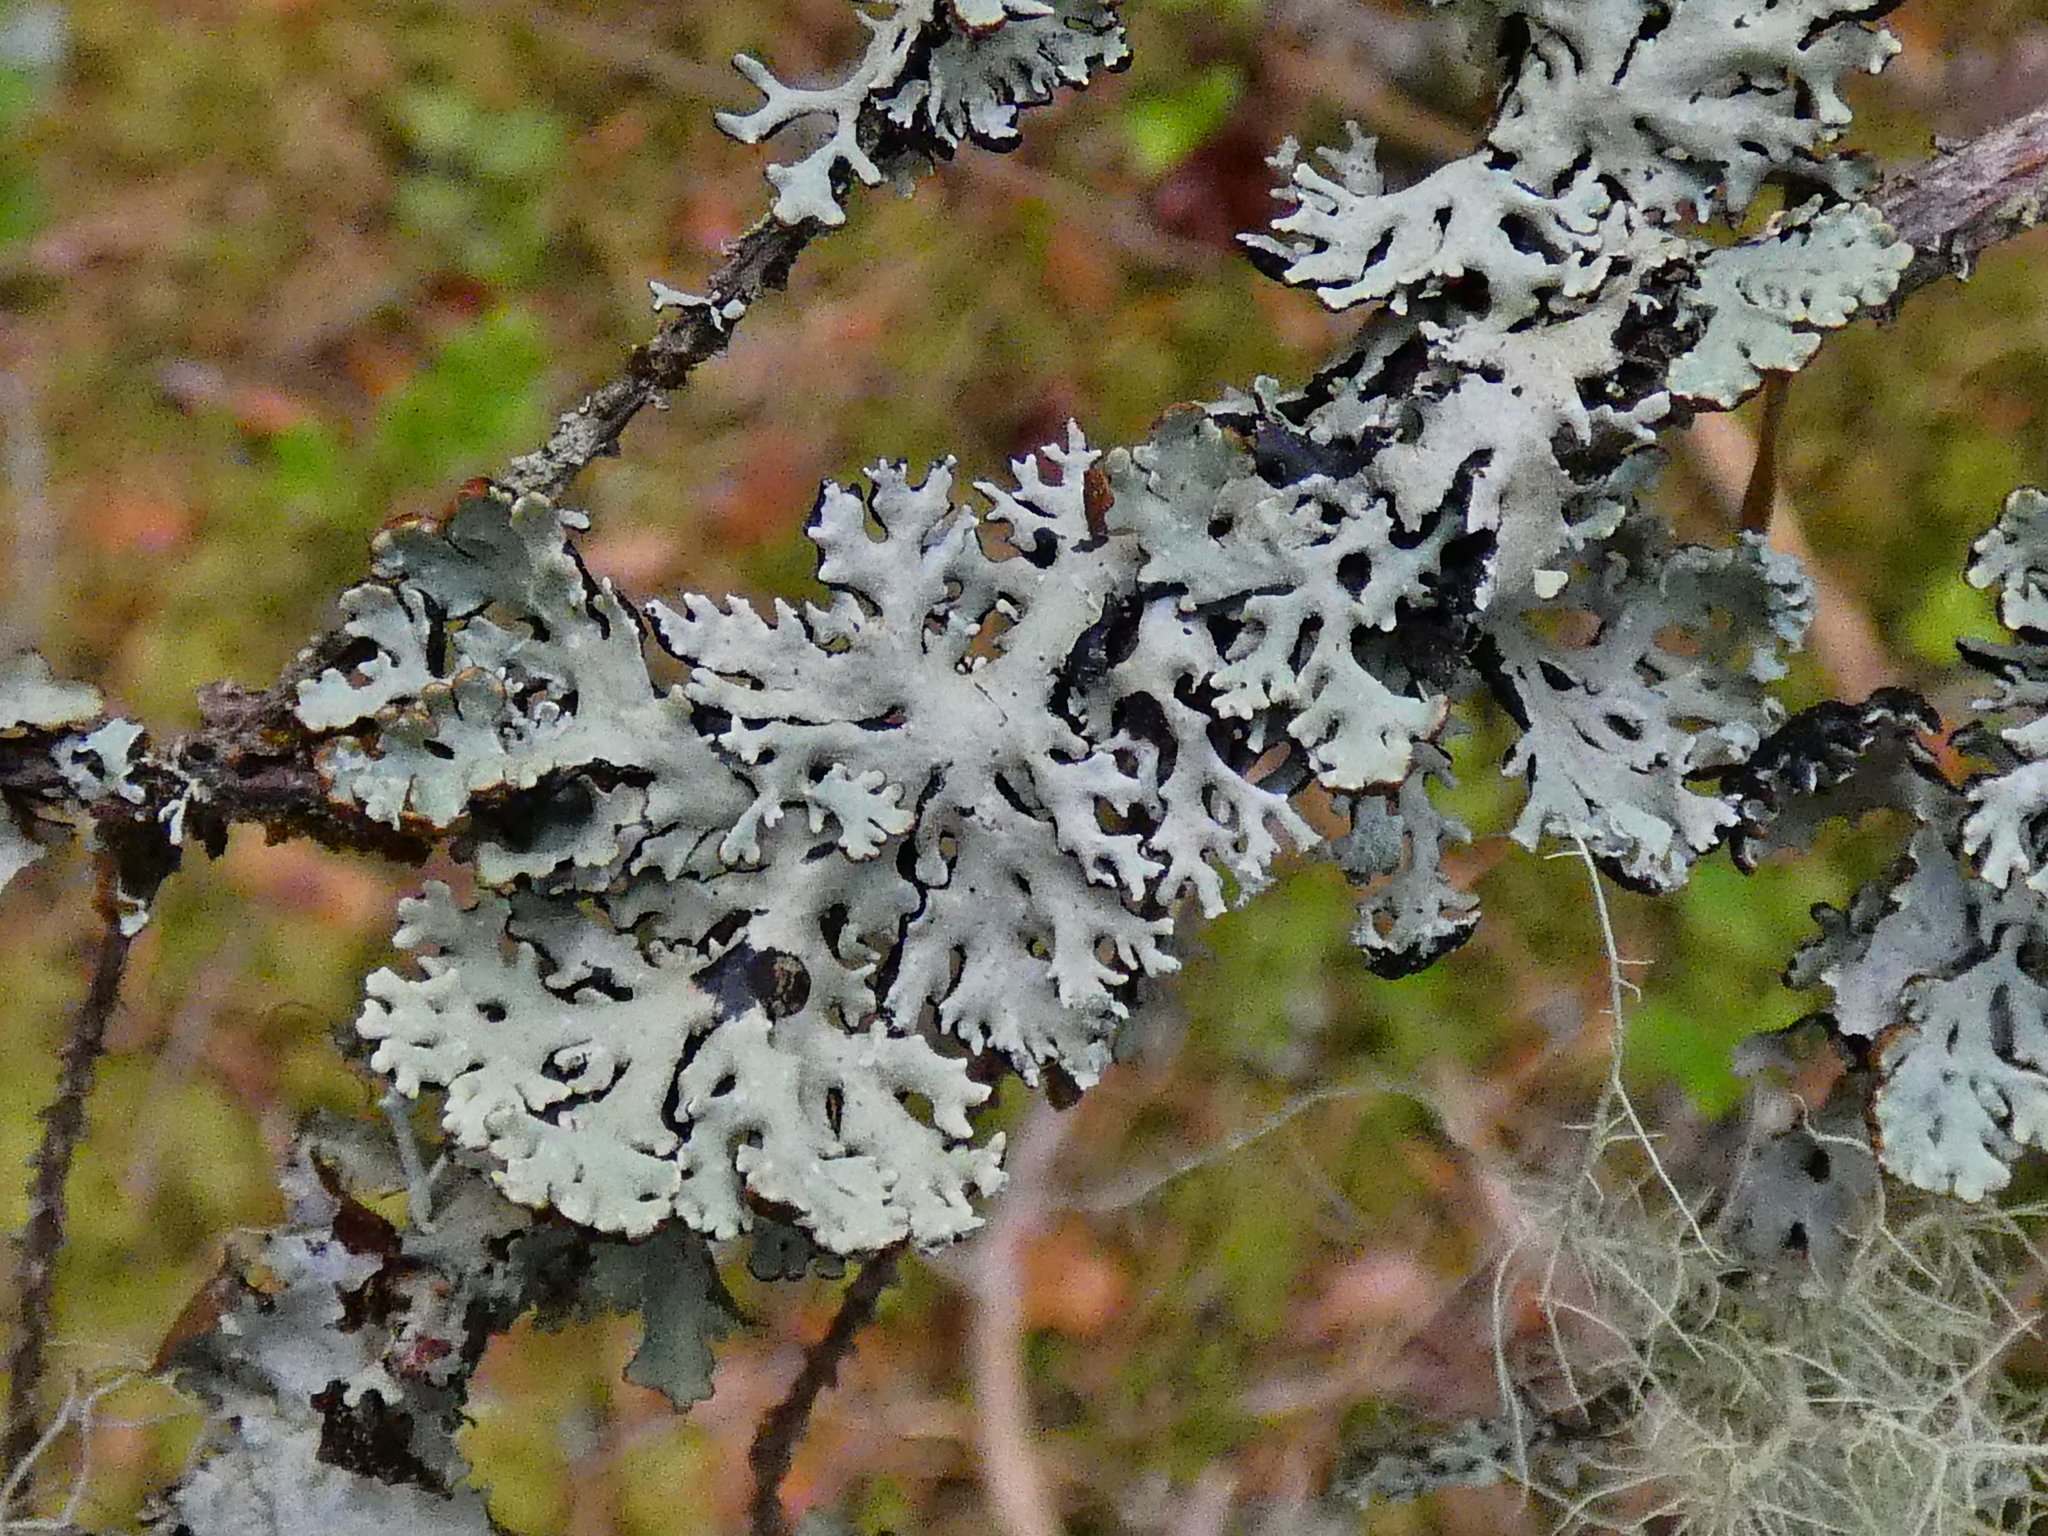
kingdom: Fungi
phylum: Ascomycota
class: Lecanoromycetes
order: Lecanorales
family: Parmeliaceae
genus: Hypogymnia
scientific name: Hypogymnia physodes
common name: Dark crottle
